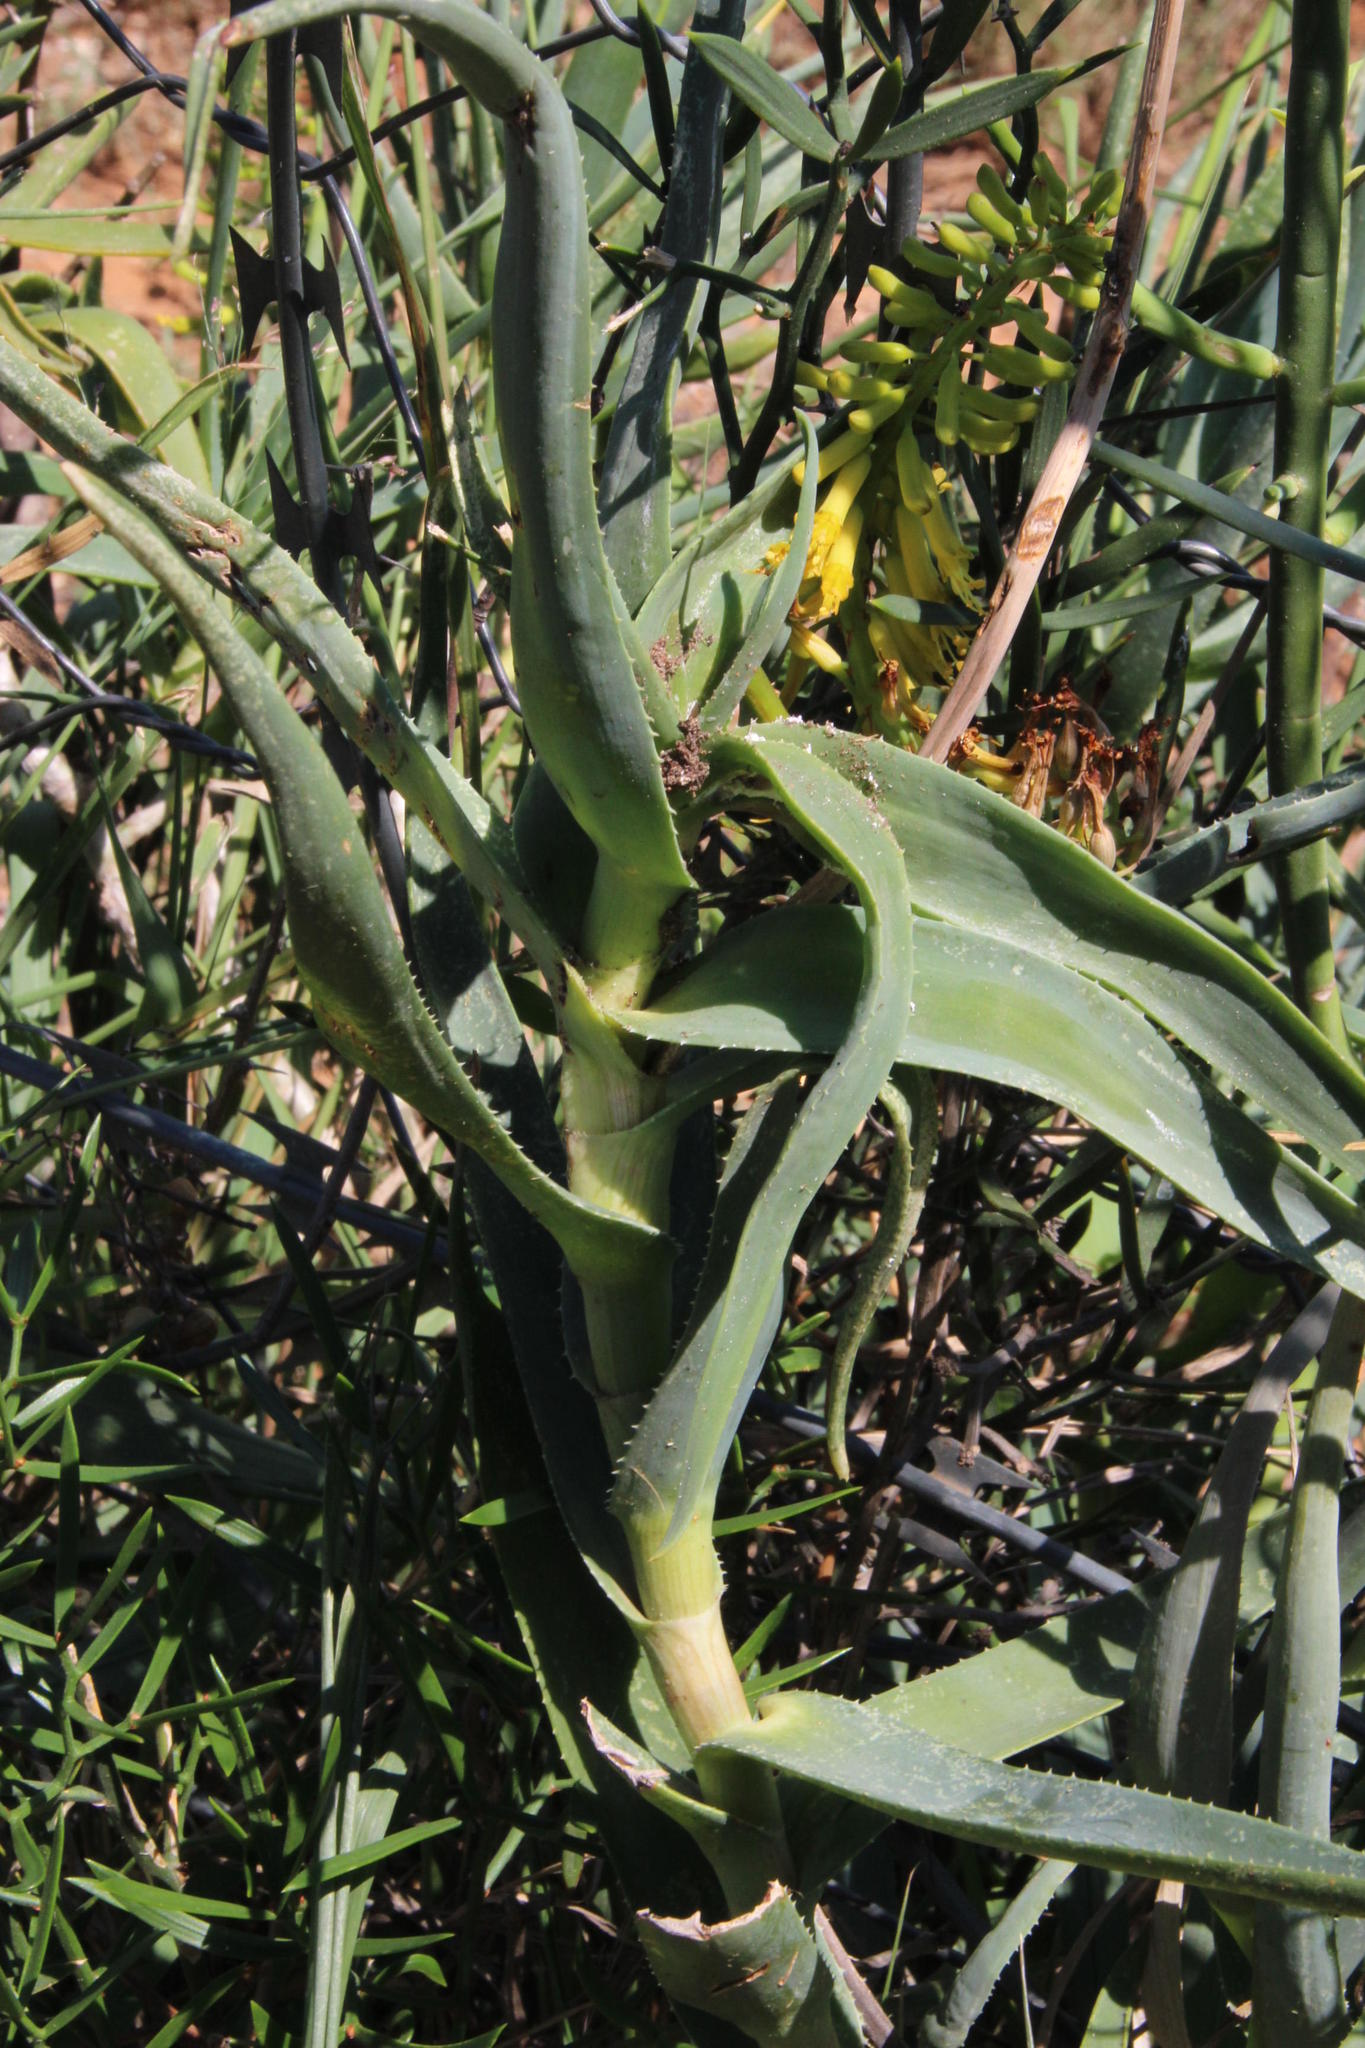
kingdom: Plantae
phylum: Tracheophyta
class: Liliopsida
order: Asparagales
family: Asphodelaceae
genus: Aloiampelos
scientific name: Aloiampelos tenuior
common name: Fence aloe
